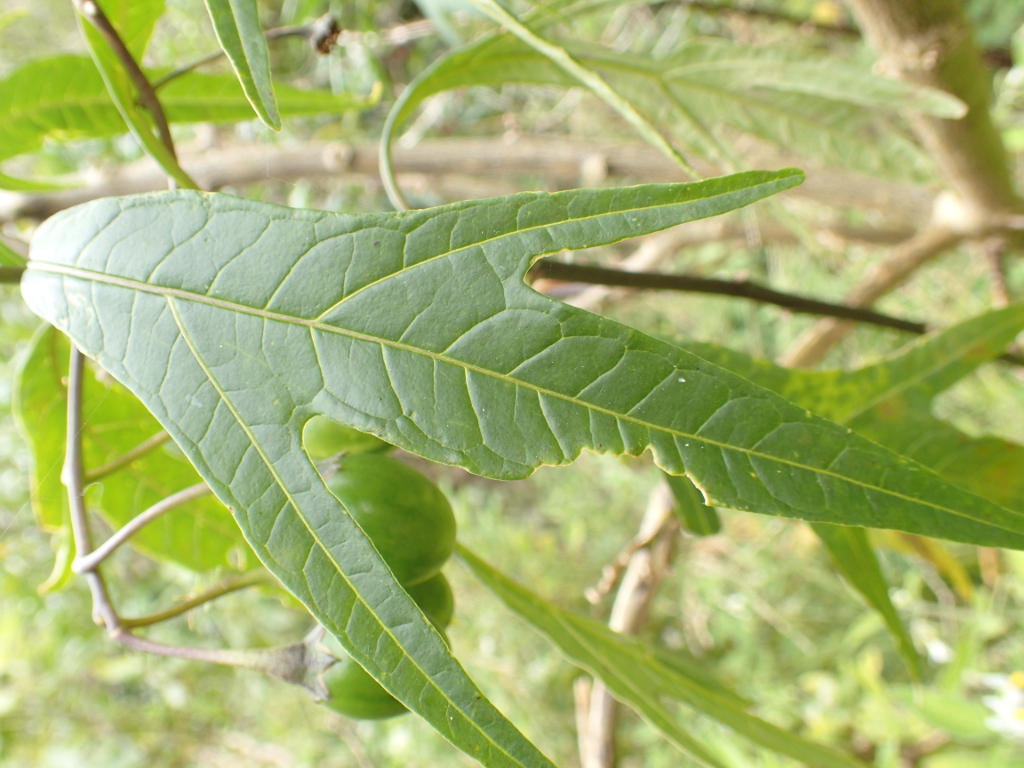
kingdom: Plantae
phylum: Tracheophyta
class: Magnoliopsida
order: Solanales
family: Solanaceae
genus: Solanum
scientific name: Solanum laciniatum
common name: Kangaroo-apple
